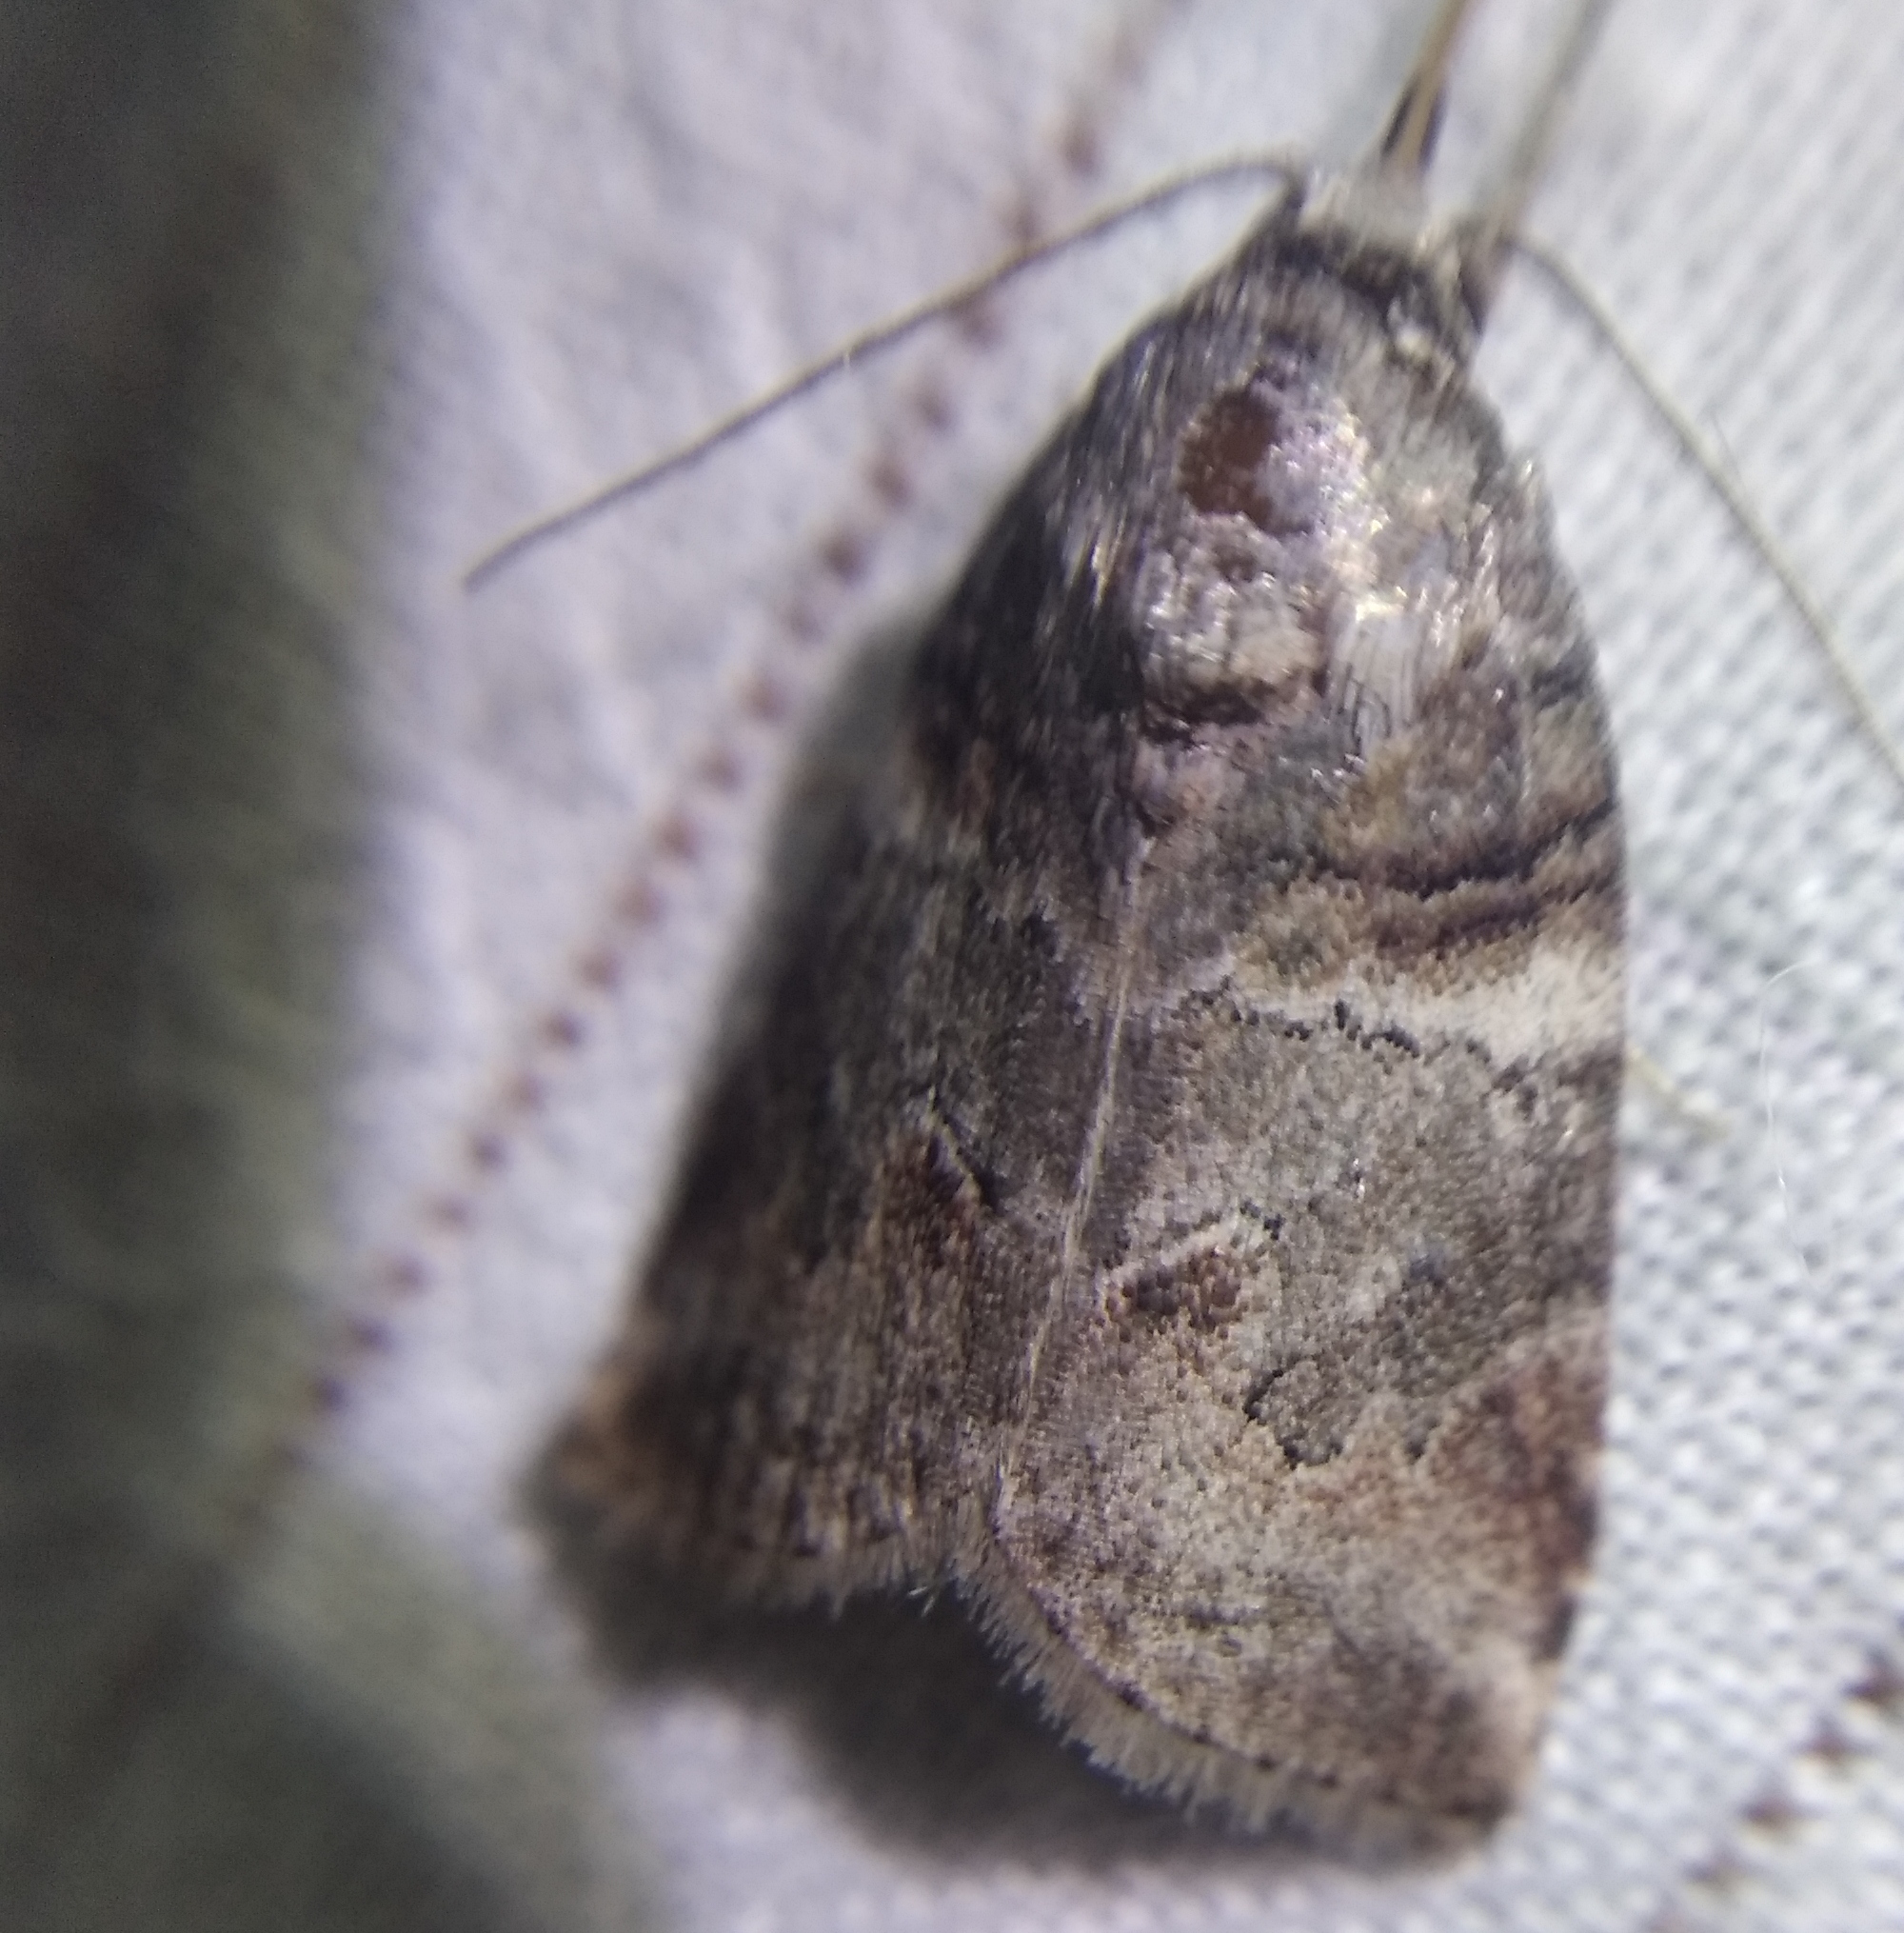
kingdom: Animalia
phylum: Arthropoda
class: Insecta
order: Lepidoptera
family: Nolidae
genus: Garella
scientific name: Garella musculana
